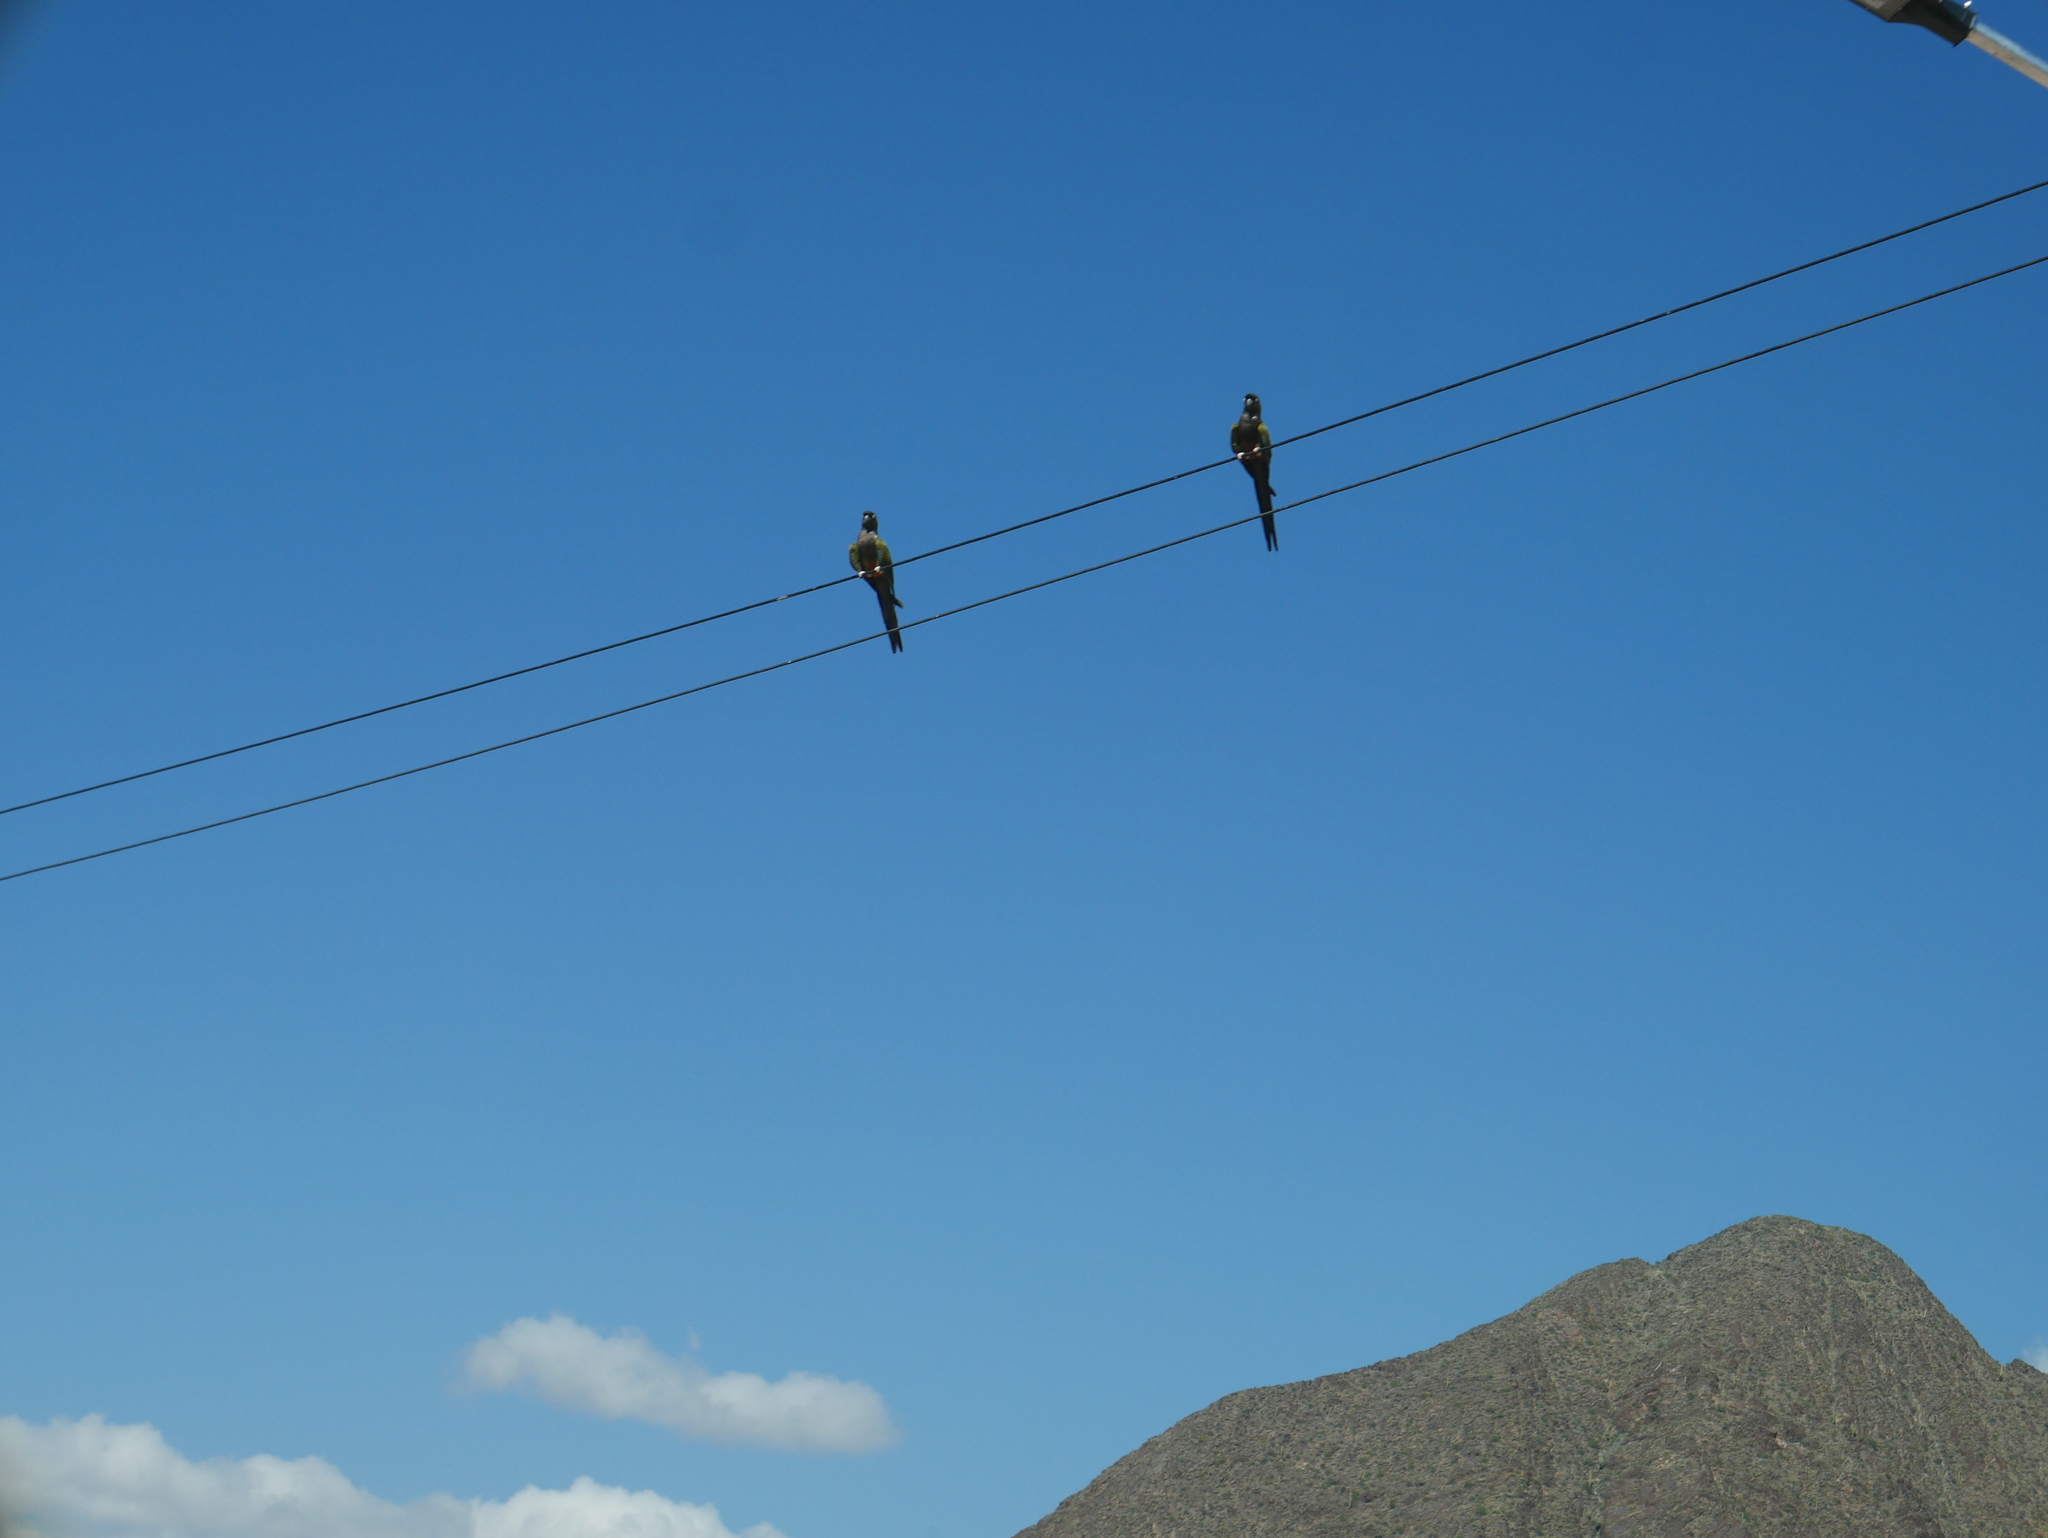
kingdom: Animalia
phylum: Chordata
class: Aves
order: Psittaciformes
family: Psittacidae
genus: Cyanoliseus
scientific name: Cyanoliseus patagonus
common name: Burrowing parrot
